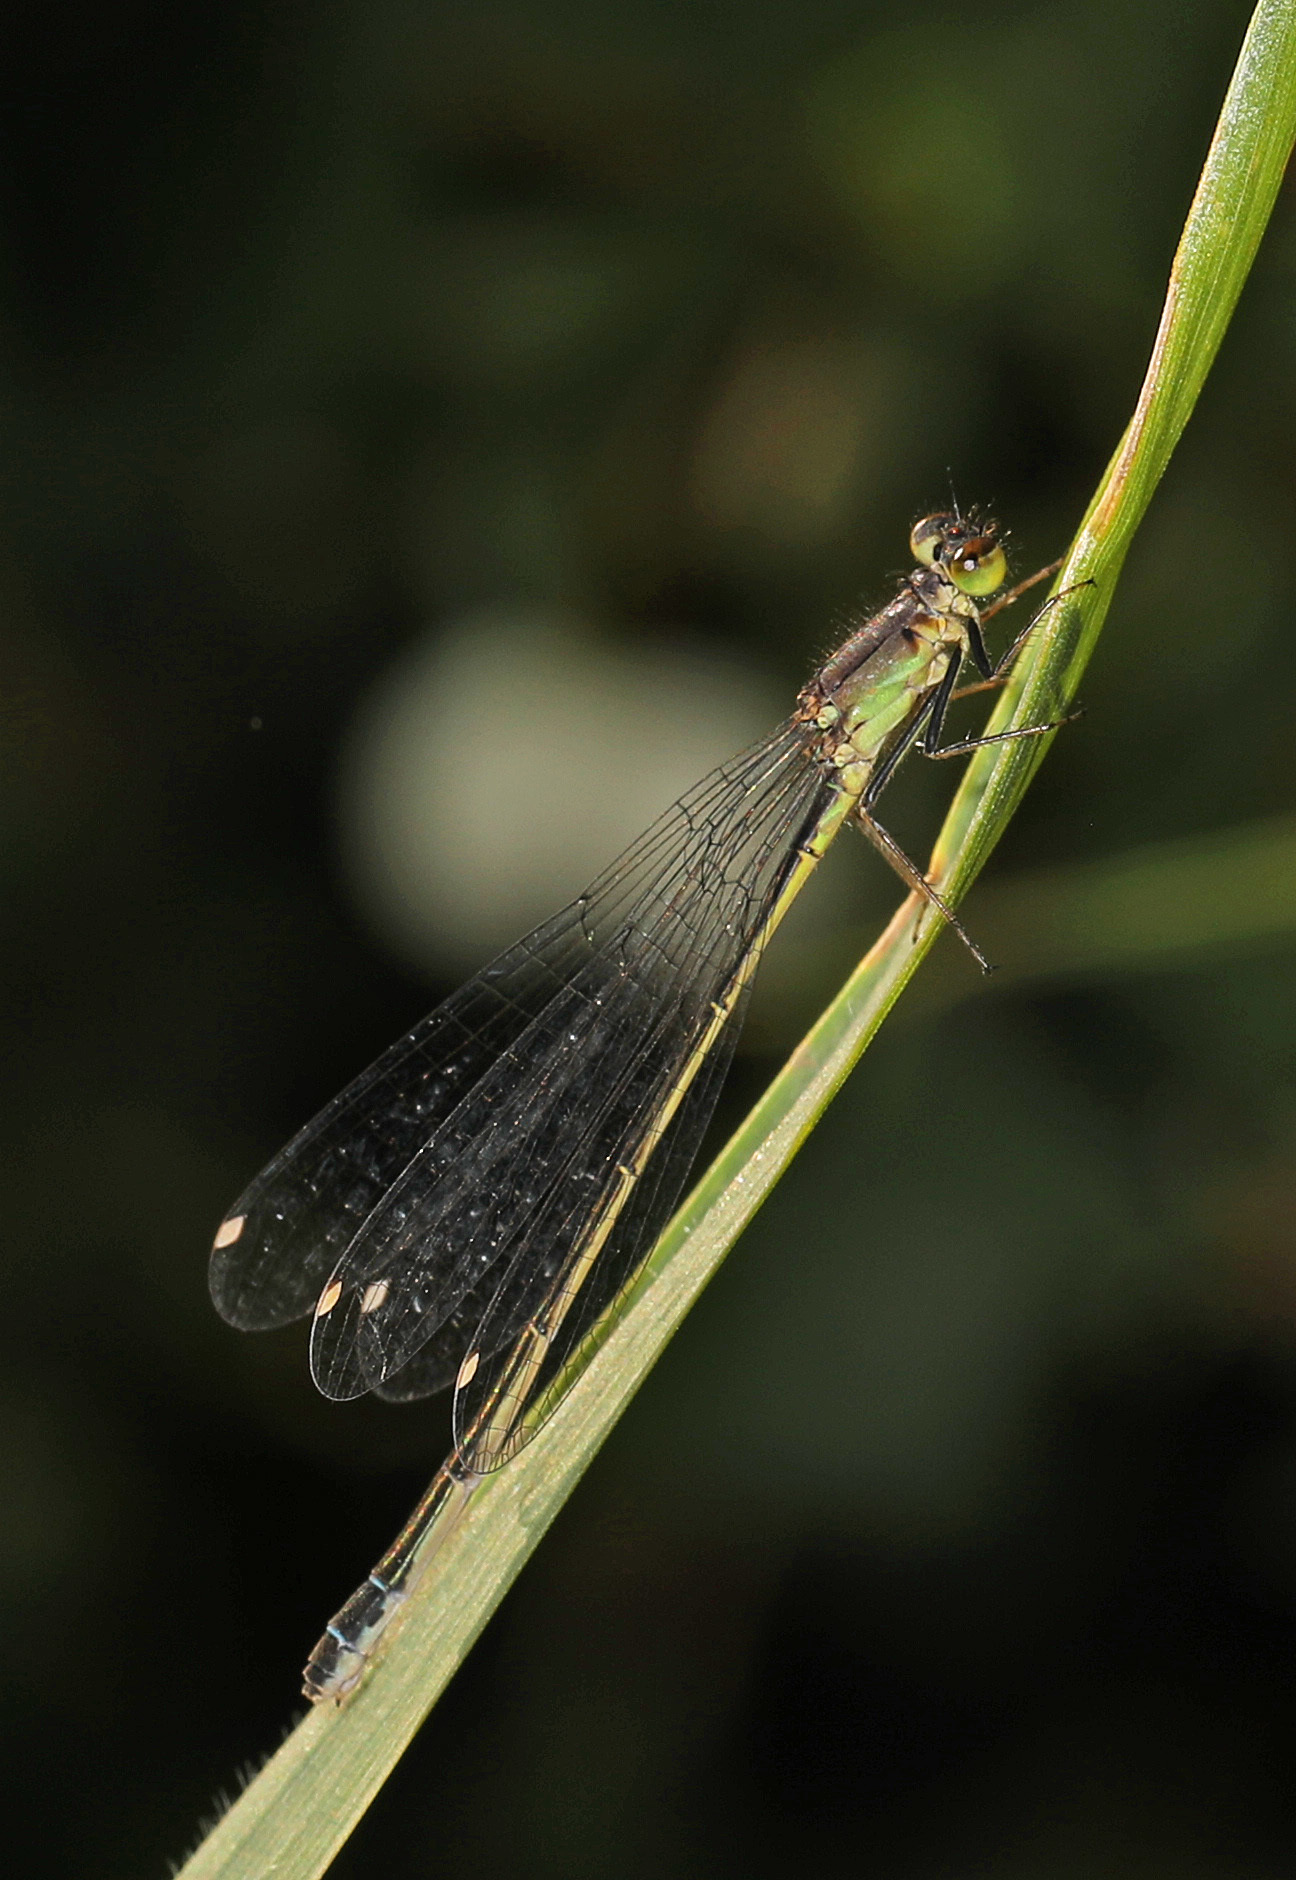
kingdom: Animalia
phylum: Arthropoda
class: Insecta
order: Odonata
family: Coenagrionidae
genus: Ischnura
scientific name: Ischnura cervula
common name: Pacific forktail
